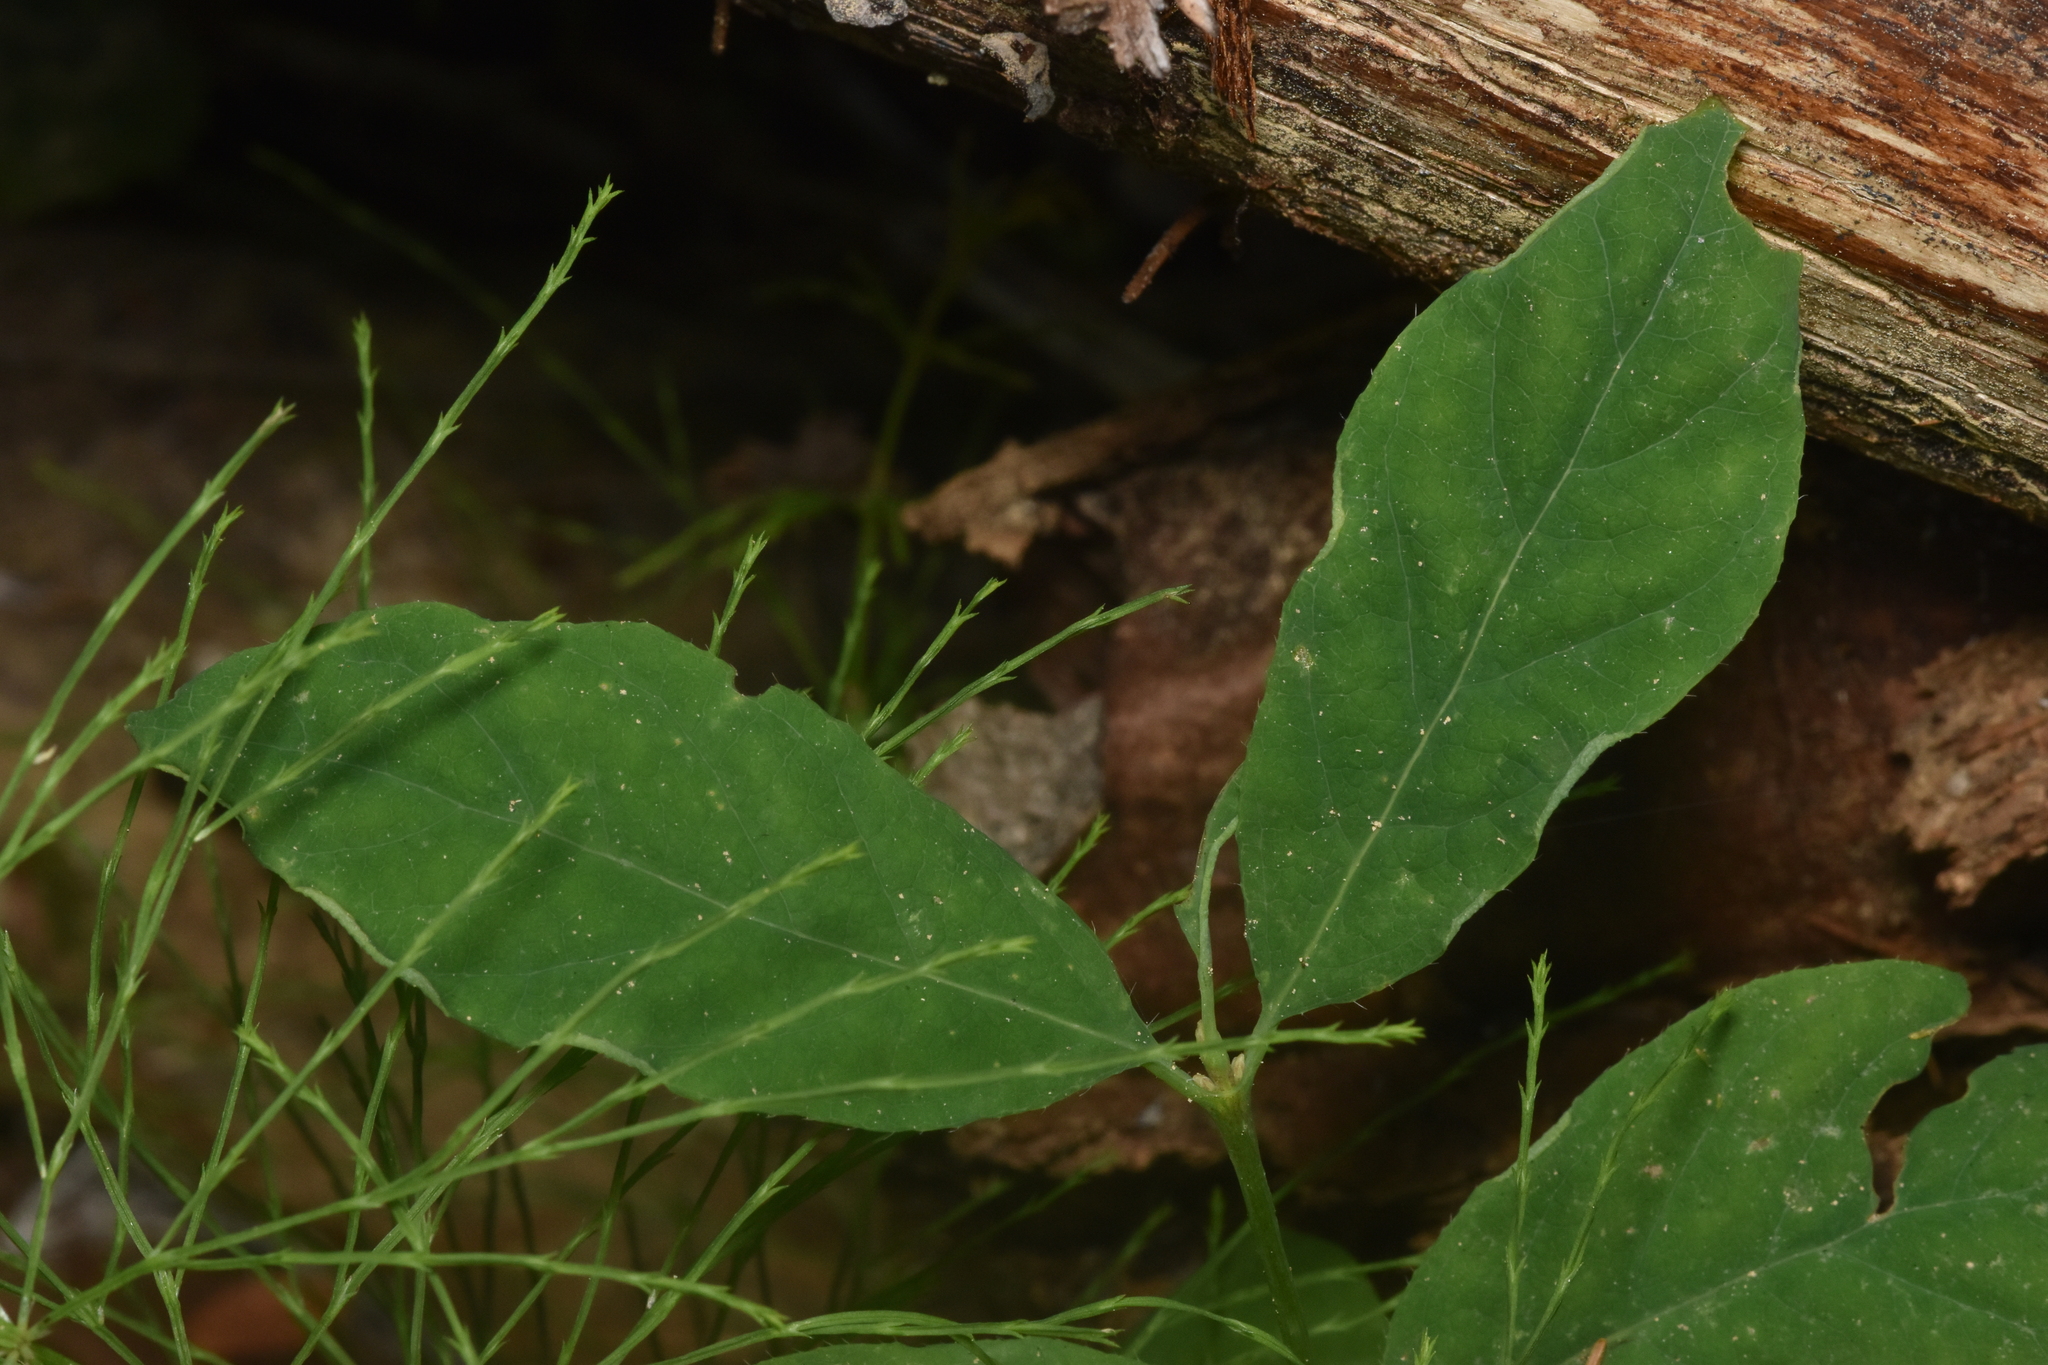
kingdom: Plantae
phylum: Tracheophyta
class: Magnoliopsida
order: Dipsacales
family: Caprifoliaceae
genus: Lonicera
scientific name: Lonicera utahensis
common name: Utah honeysuckle
